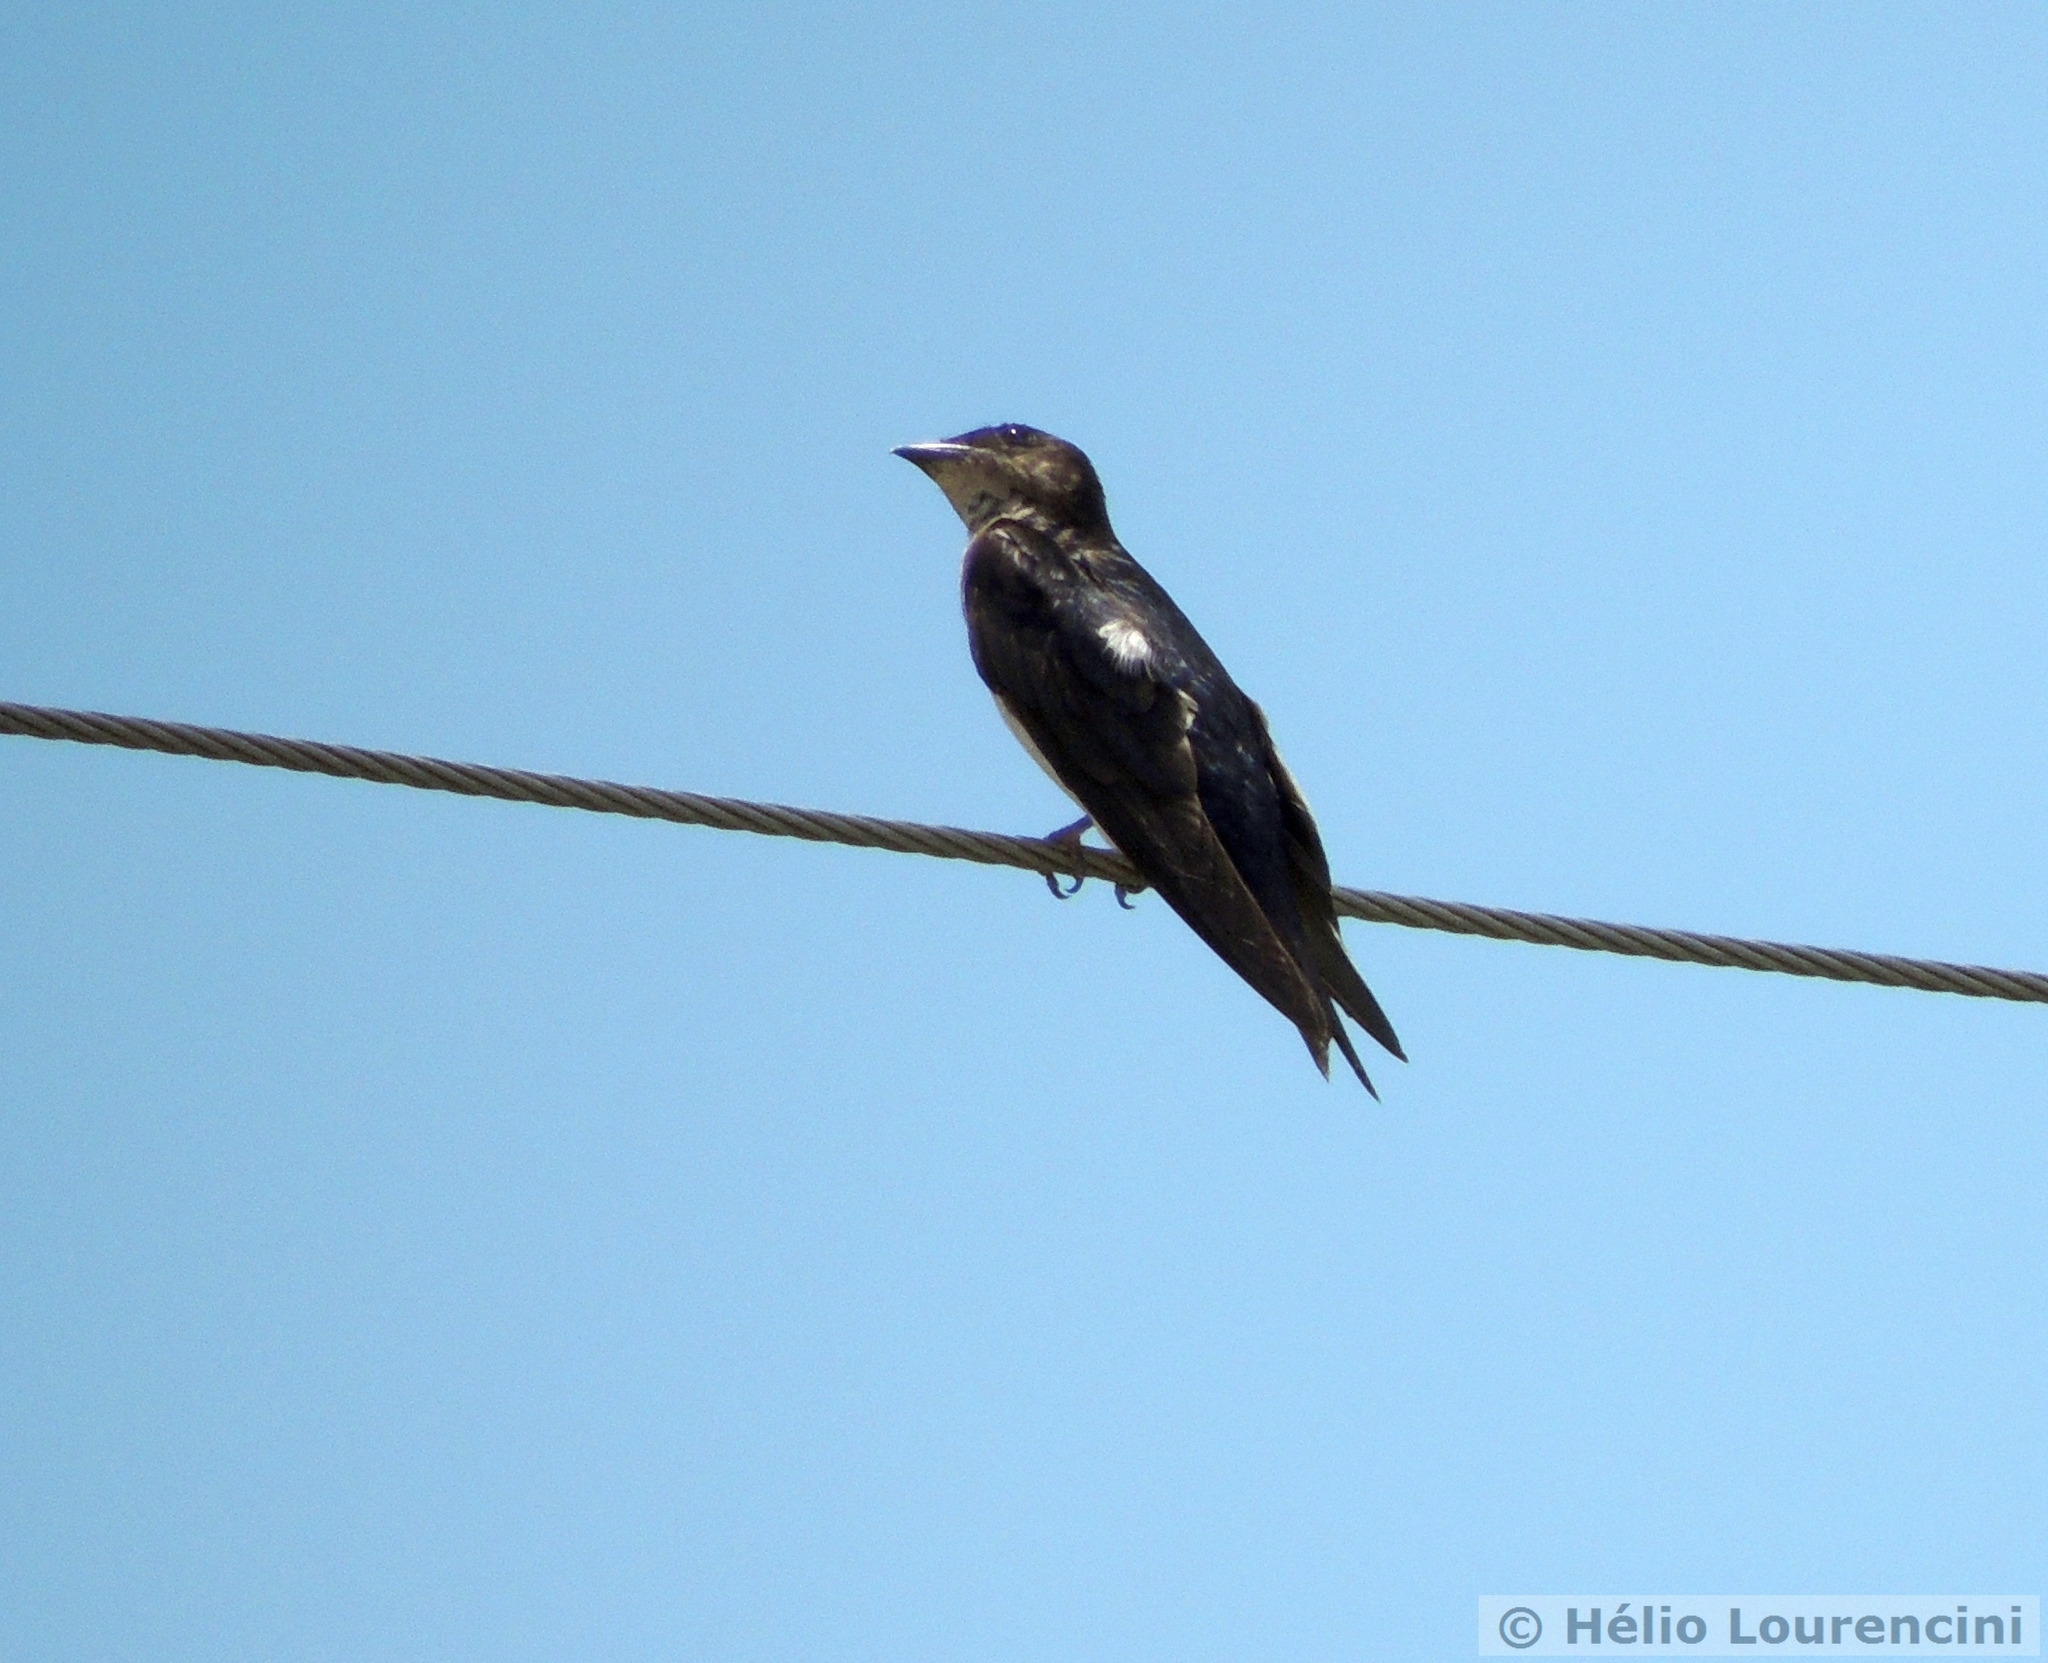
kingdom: Animalia
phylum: Chordata
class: Aves
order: Passeriformes
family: Hirundinidae
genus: Progne
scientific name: Progne chalybea
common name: Grey-breasted martin
